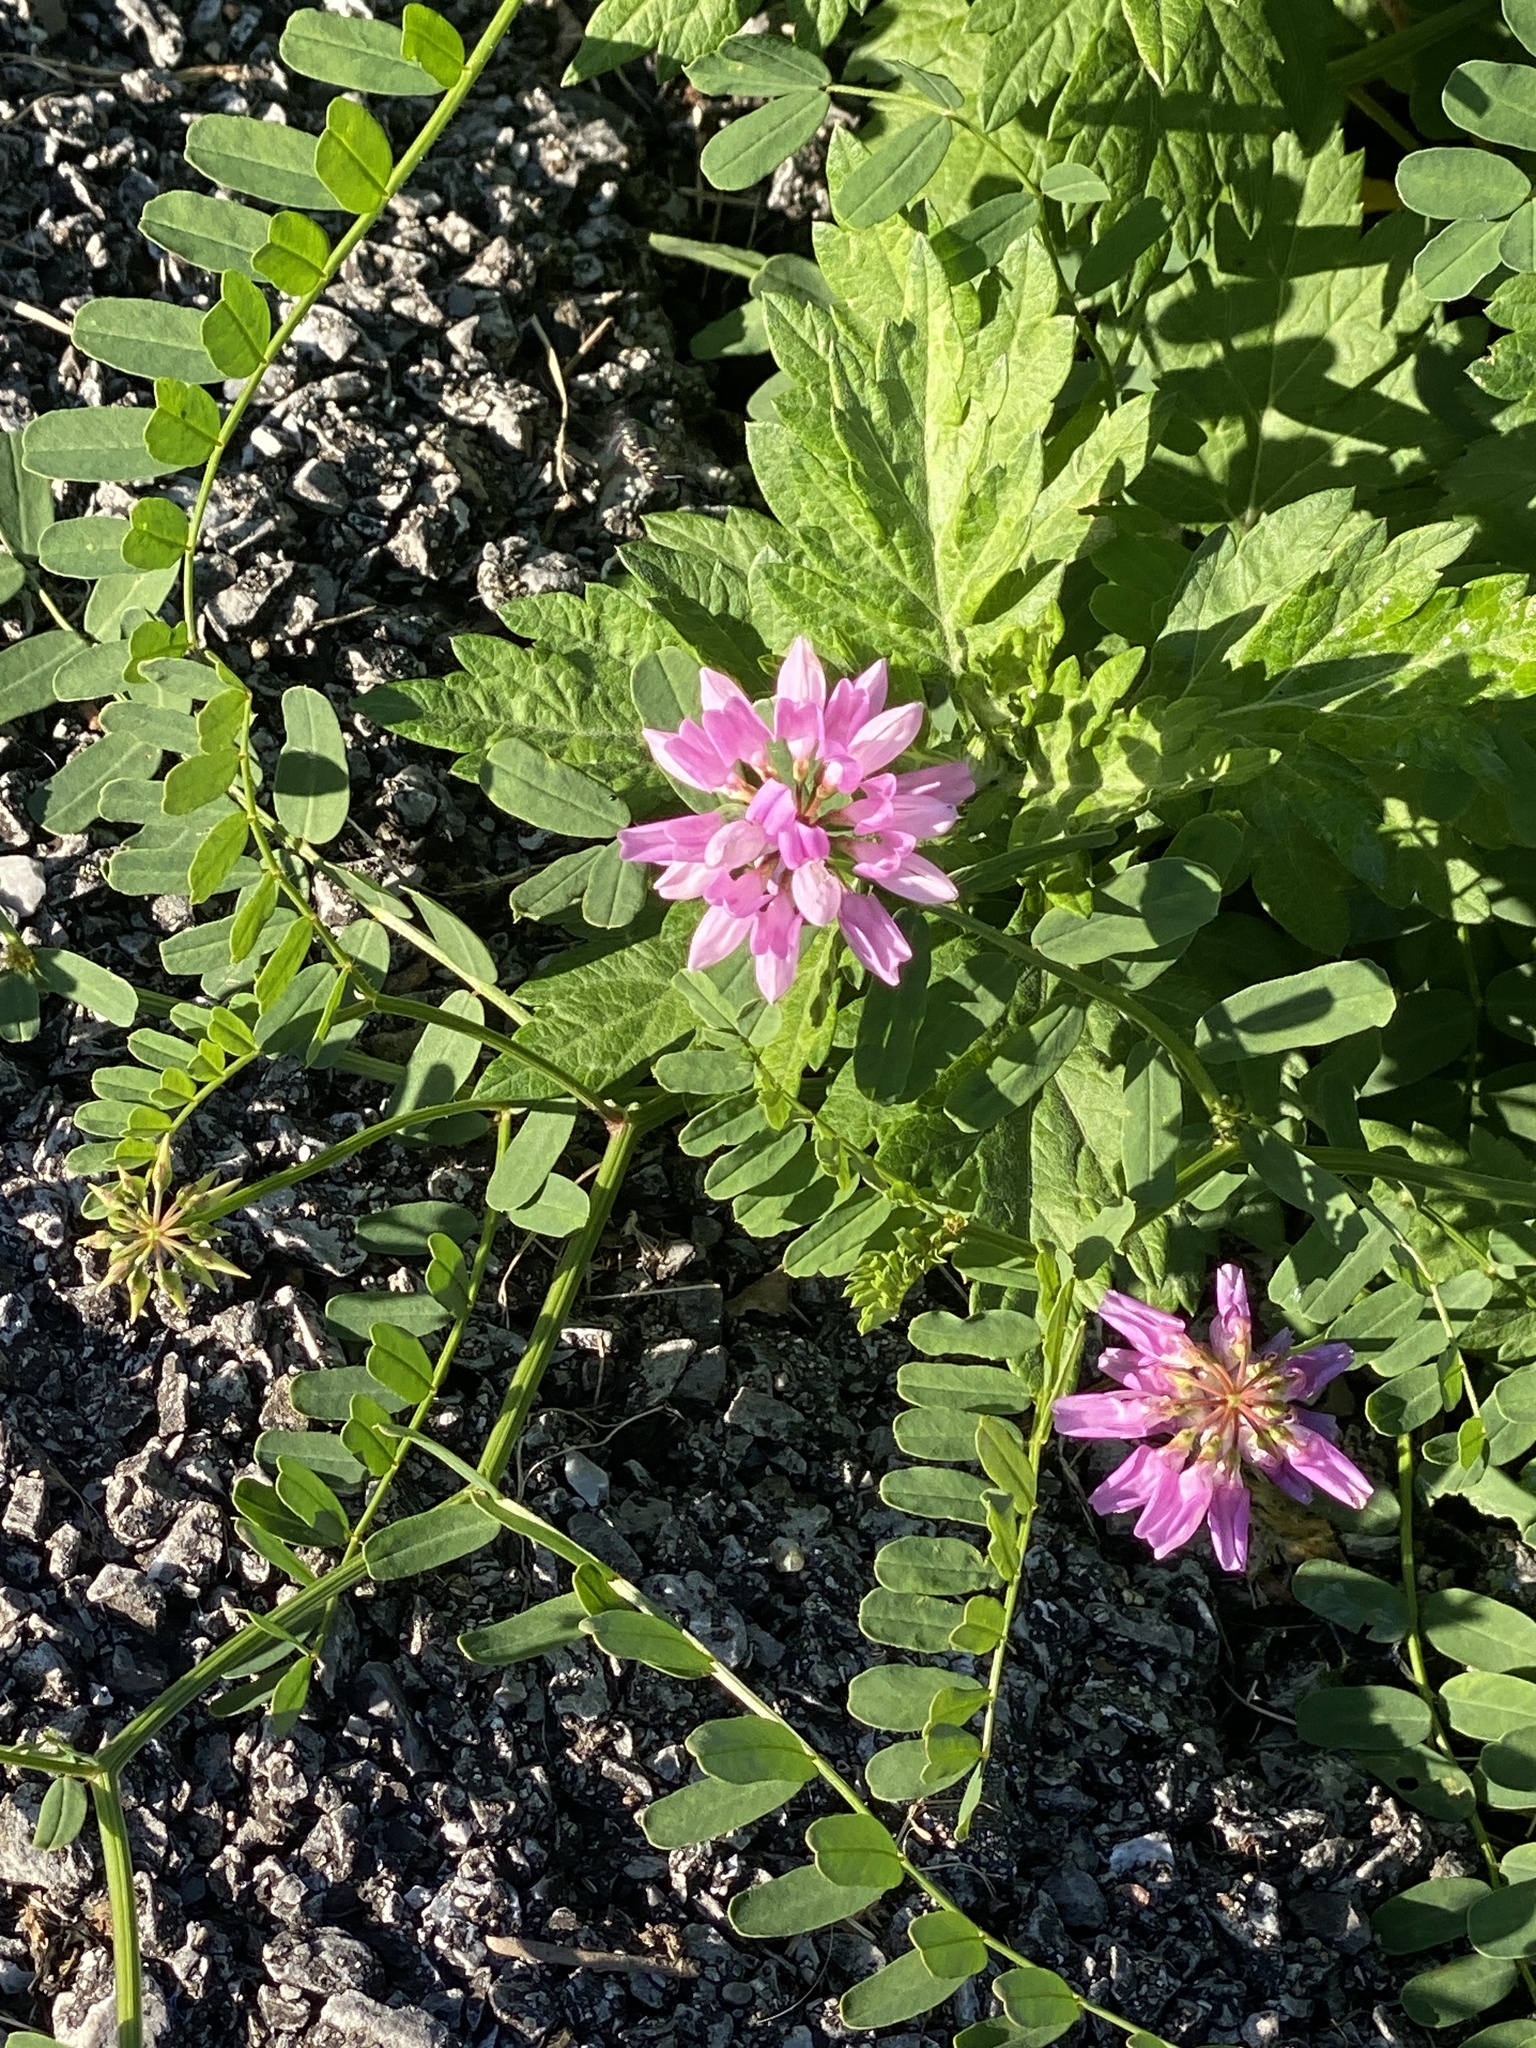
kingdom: Plantae
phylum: Tracheophyta
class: Magnoliopsida
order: Fabales
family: Fabaceae
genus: Coronilla
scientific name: Coronilla varia
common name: Crownvetch
